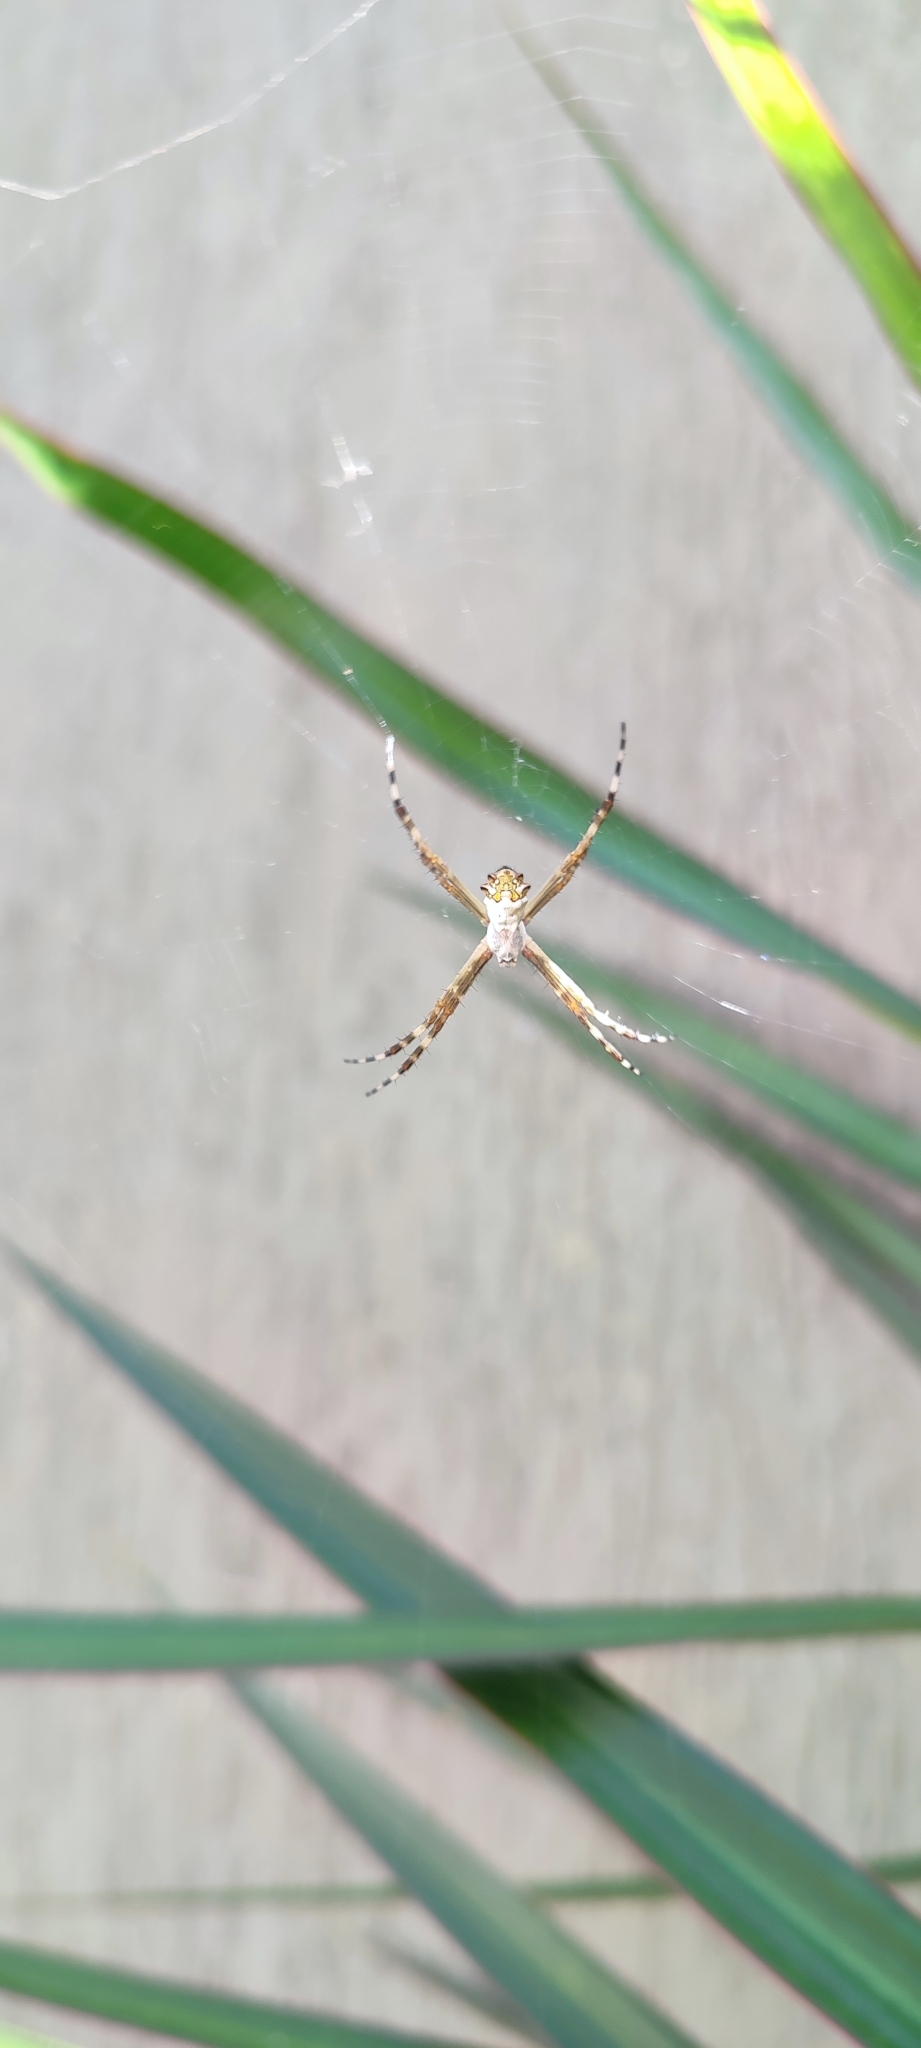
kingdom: Animalia
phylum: Arthropoda
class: Arachnida
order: Araneae
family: Araneidae
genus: Argiope
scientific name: Argiope argentata
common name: Orb weavers
